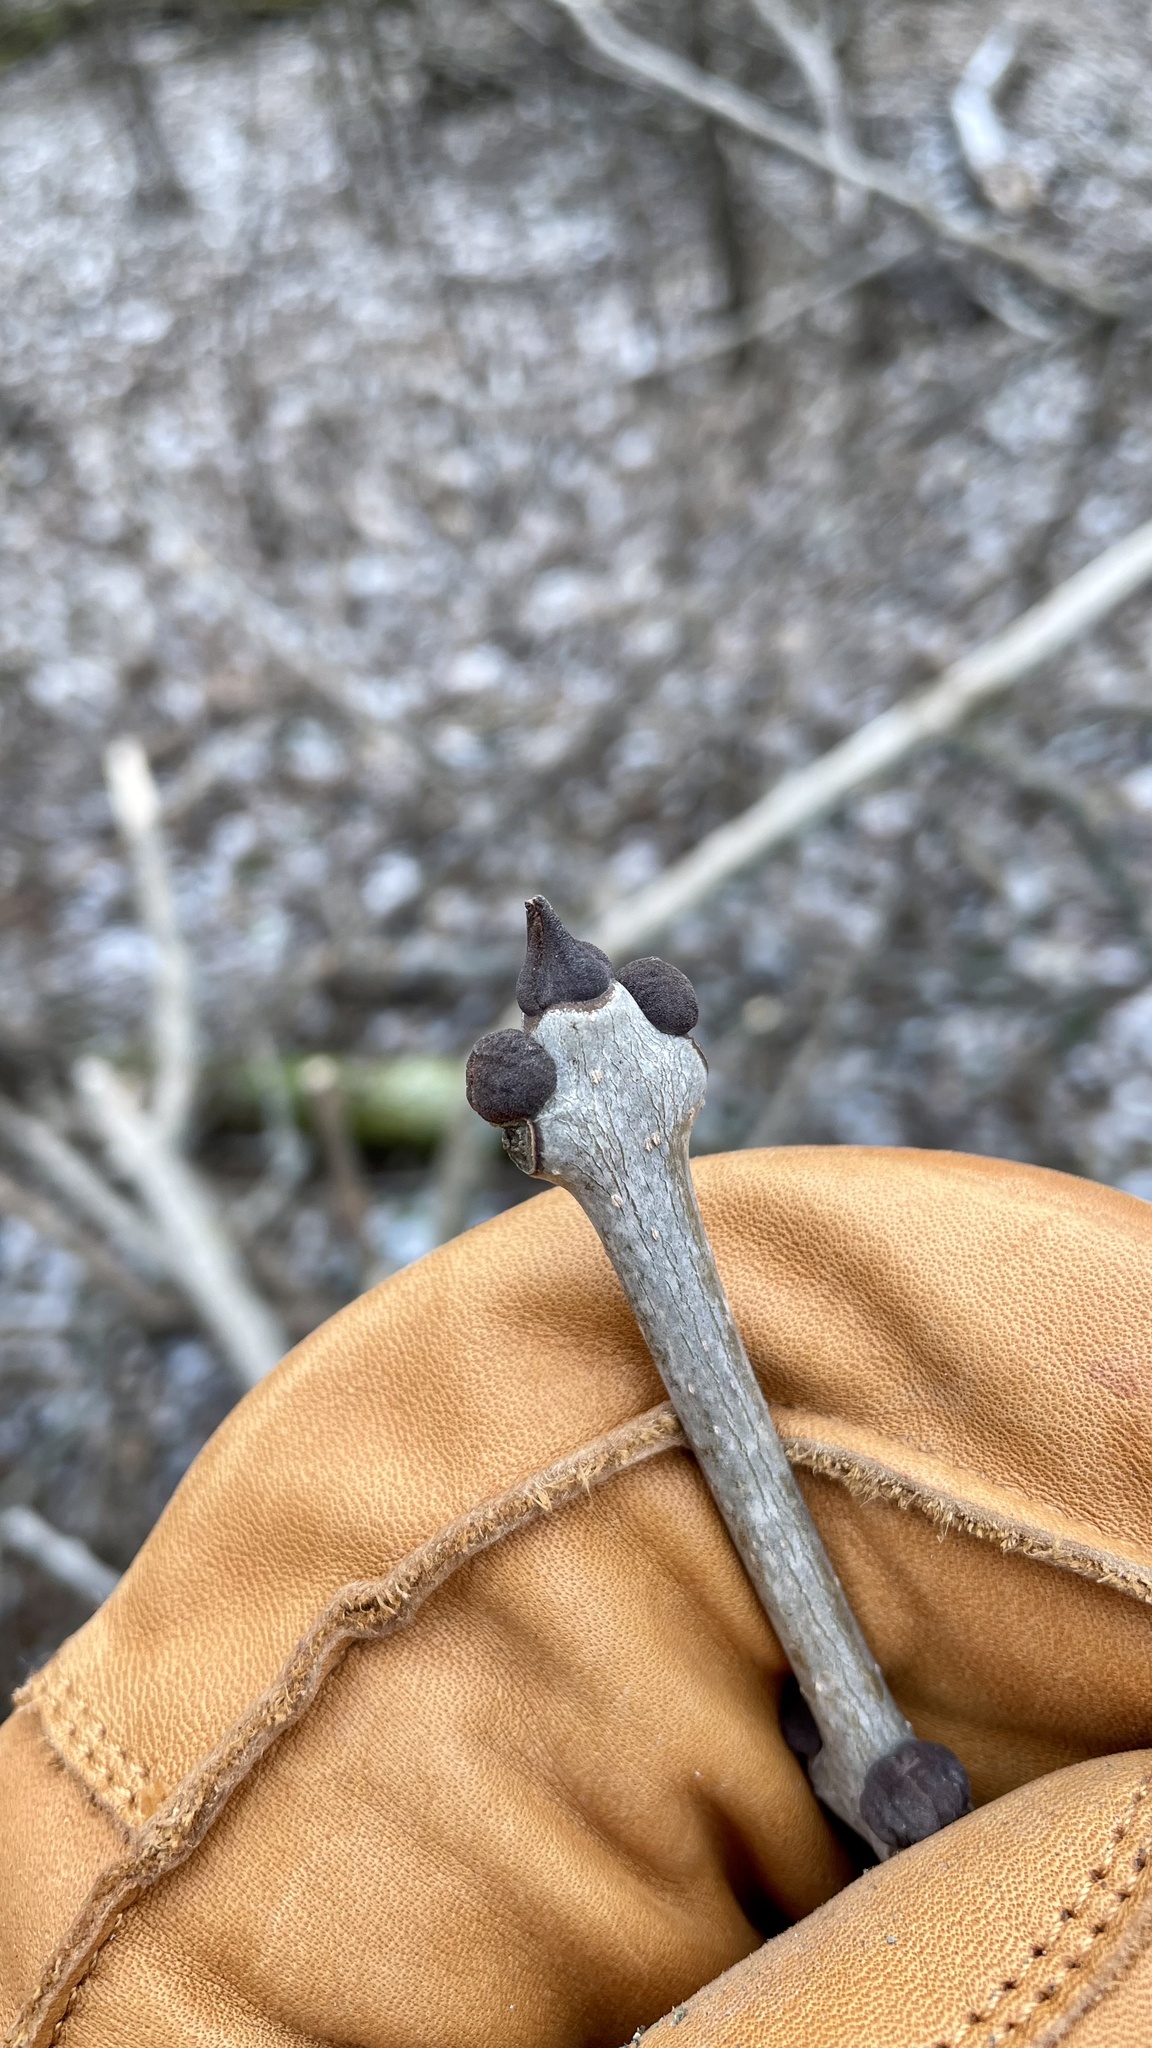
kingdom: Plantae
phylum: Tracheophyta
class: Magnoliopsida
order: Lamiales
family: Oleaceae
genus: Fraxinus
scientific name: Fraxinus nigra
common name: Black ash
